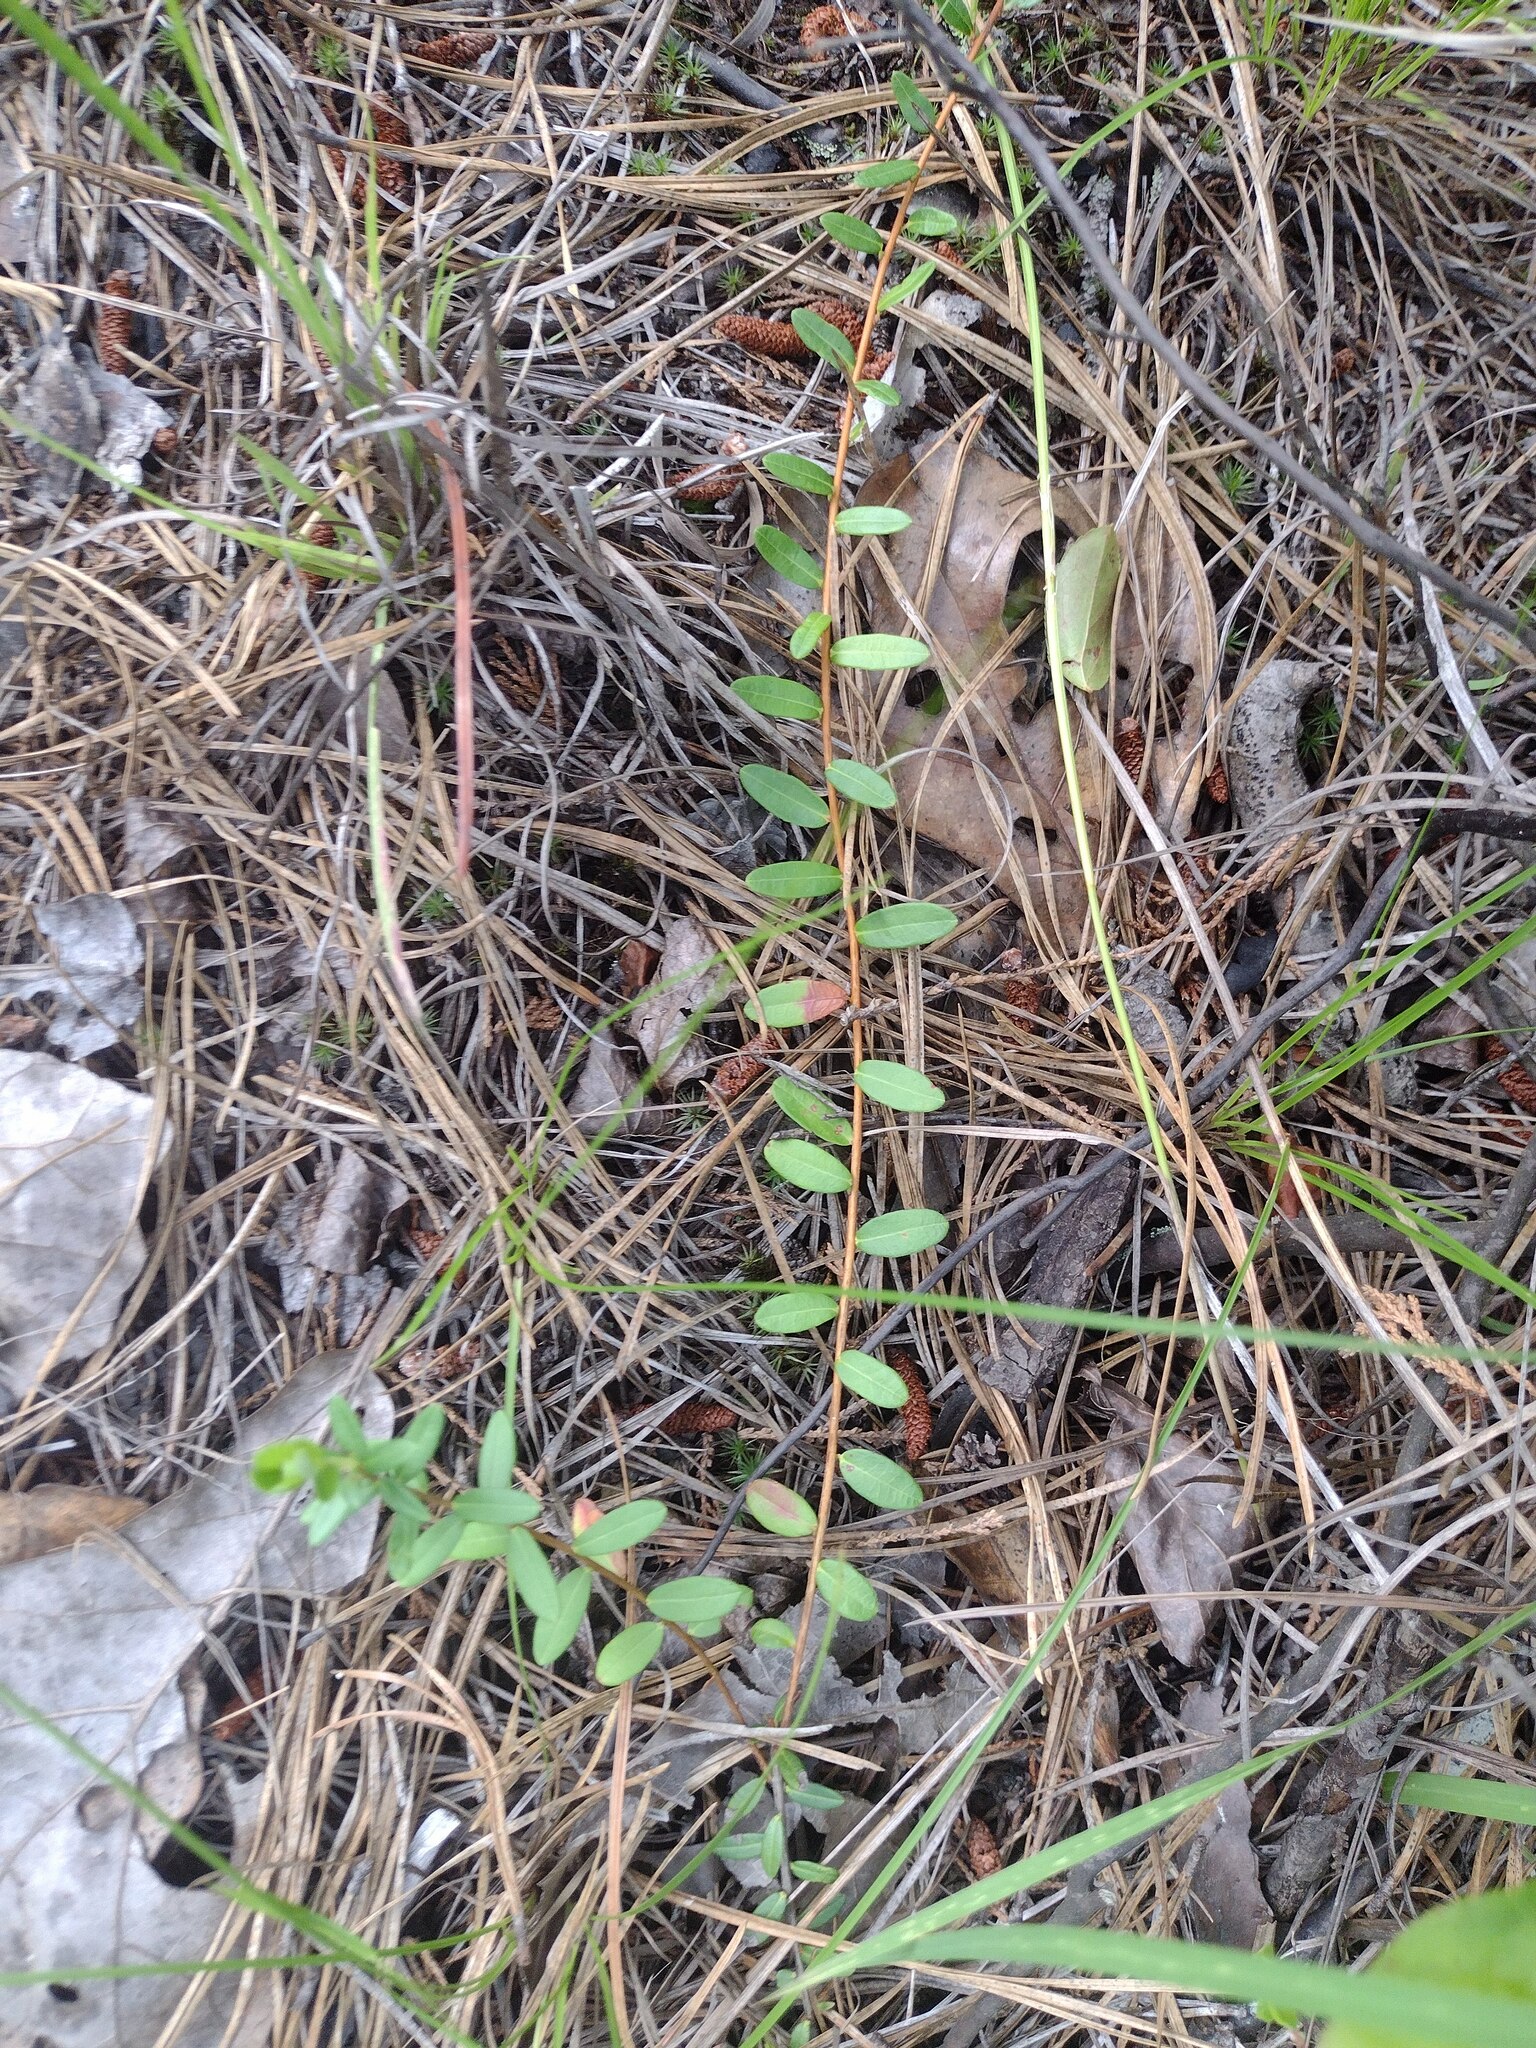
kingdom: Plantae
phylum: Tracheophyta
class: Magnoliopsida
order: Ericales
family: Ericaceae
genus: Vaccinium
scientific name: Vaccinium macrocarpon
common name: American cranberry
